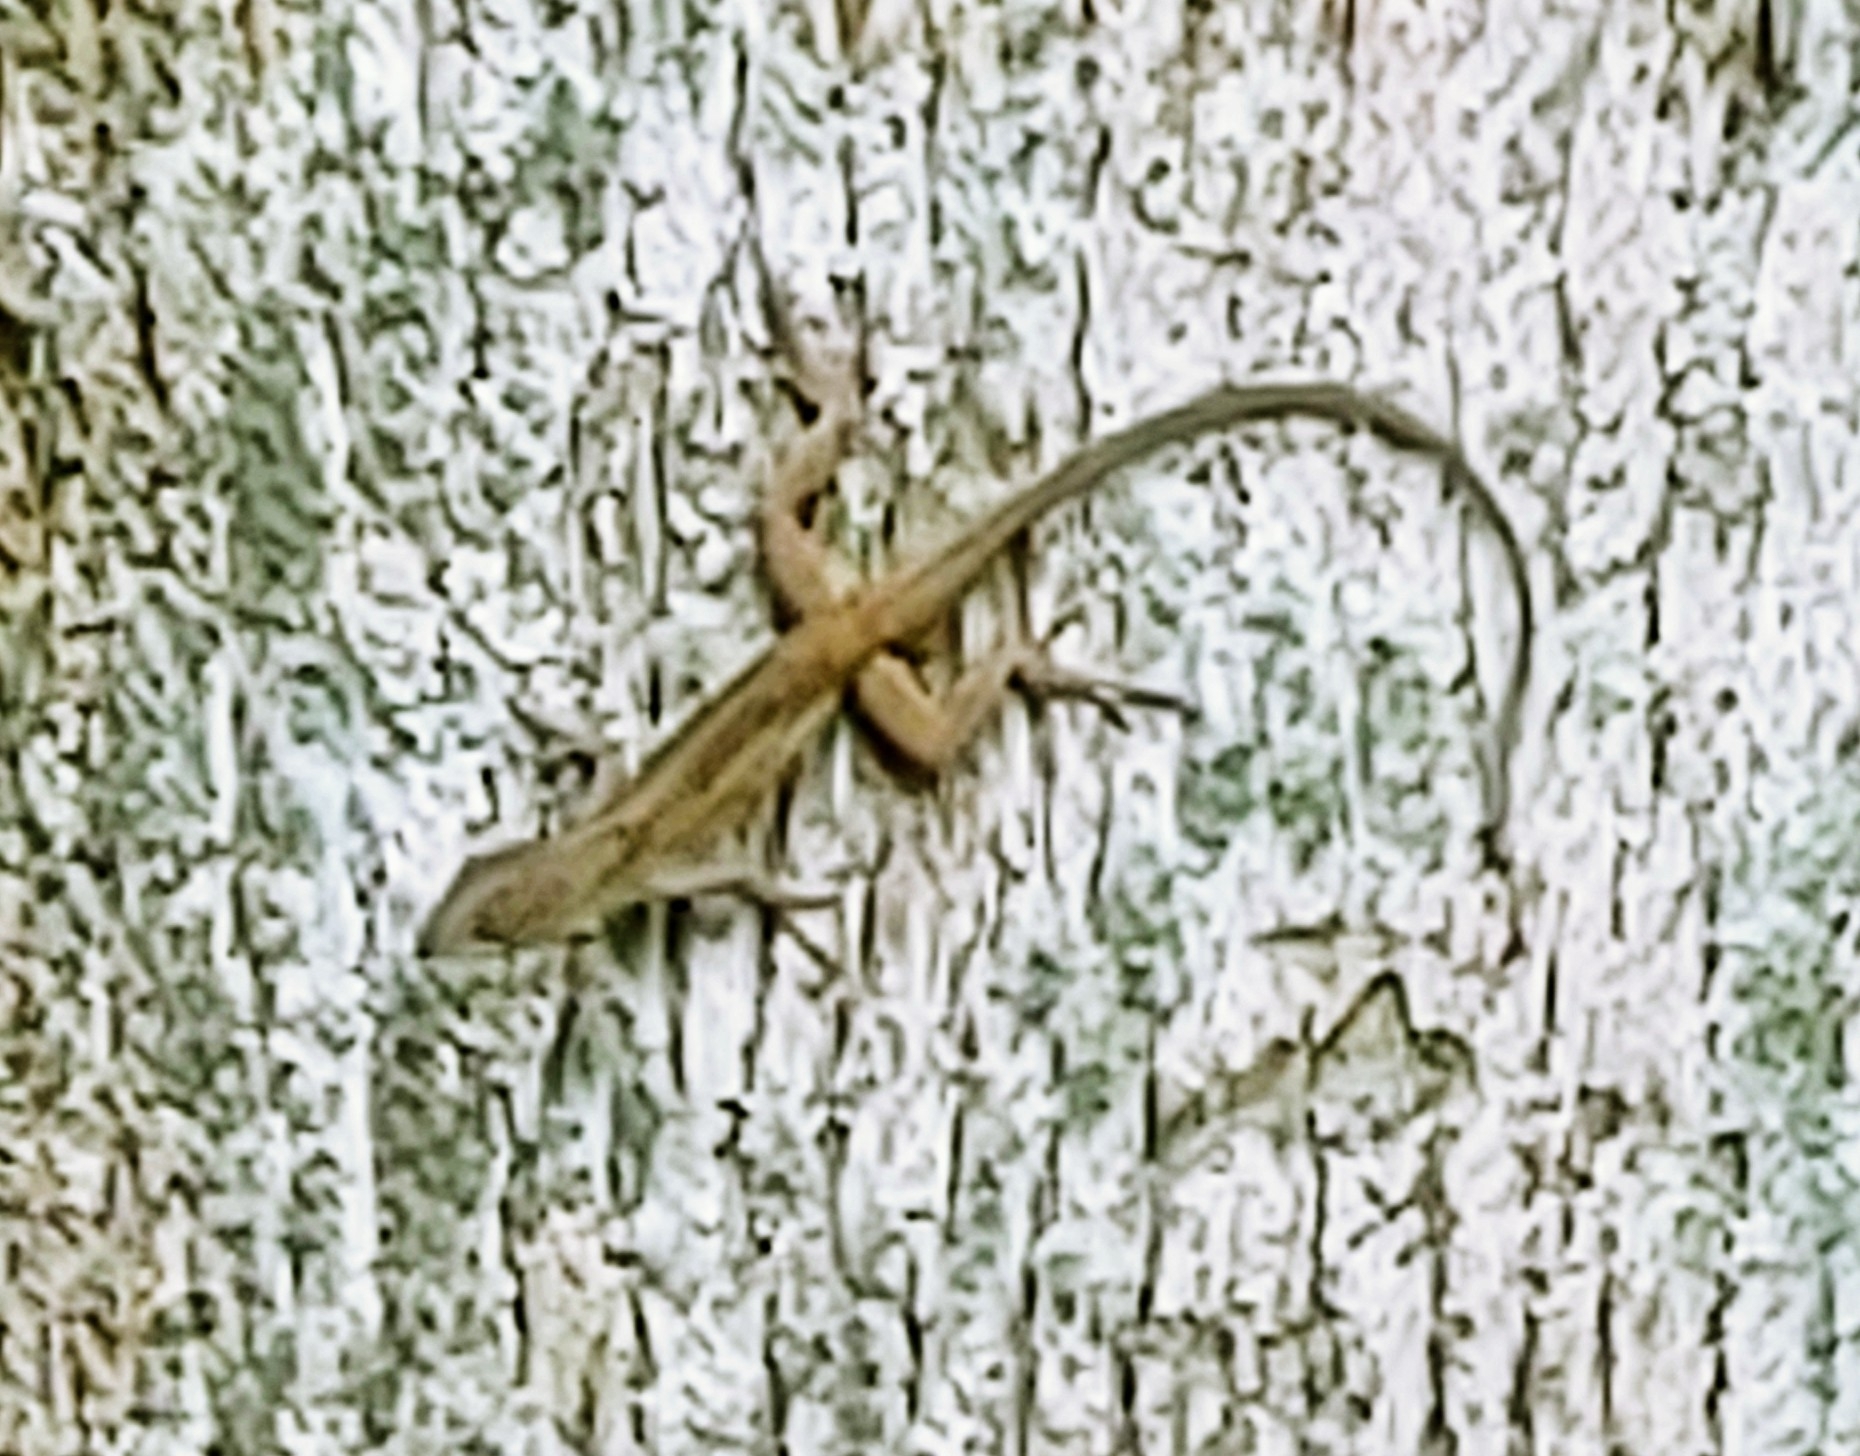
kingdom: Animalia
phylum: Chordata
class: Squamata
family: Dactyloidae
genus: Anolis
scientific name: Anolis sagrei
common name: Brown anole
